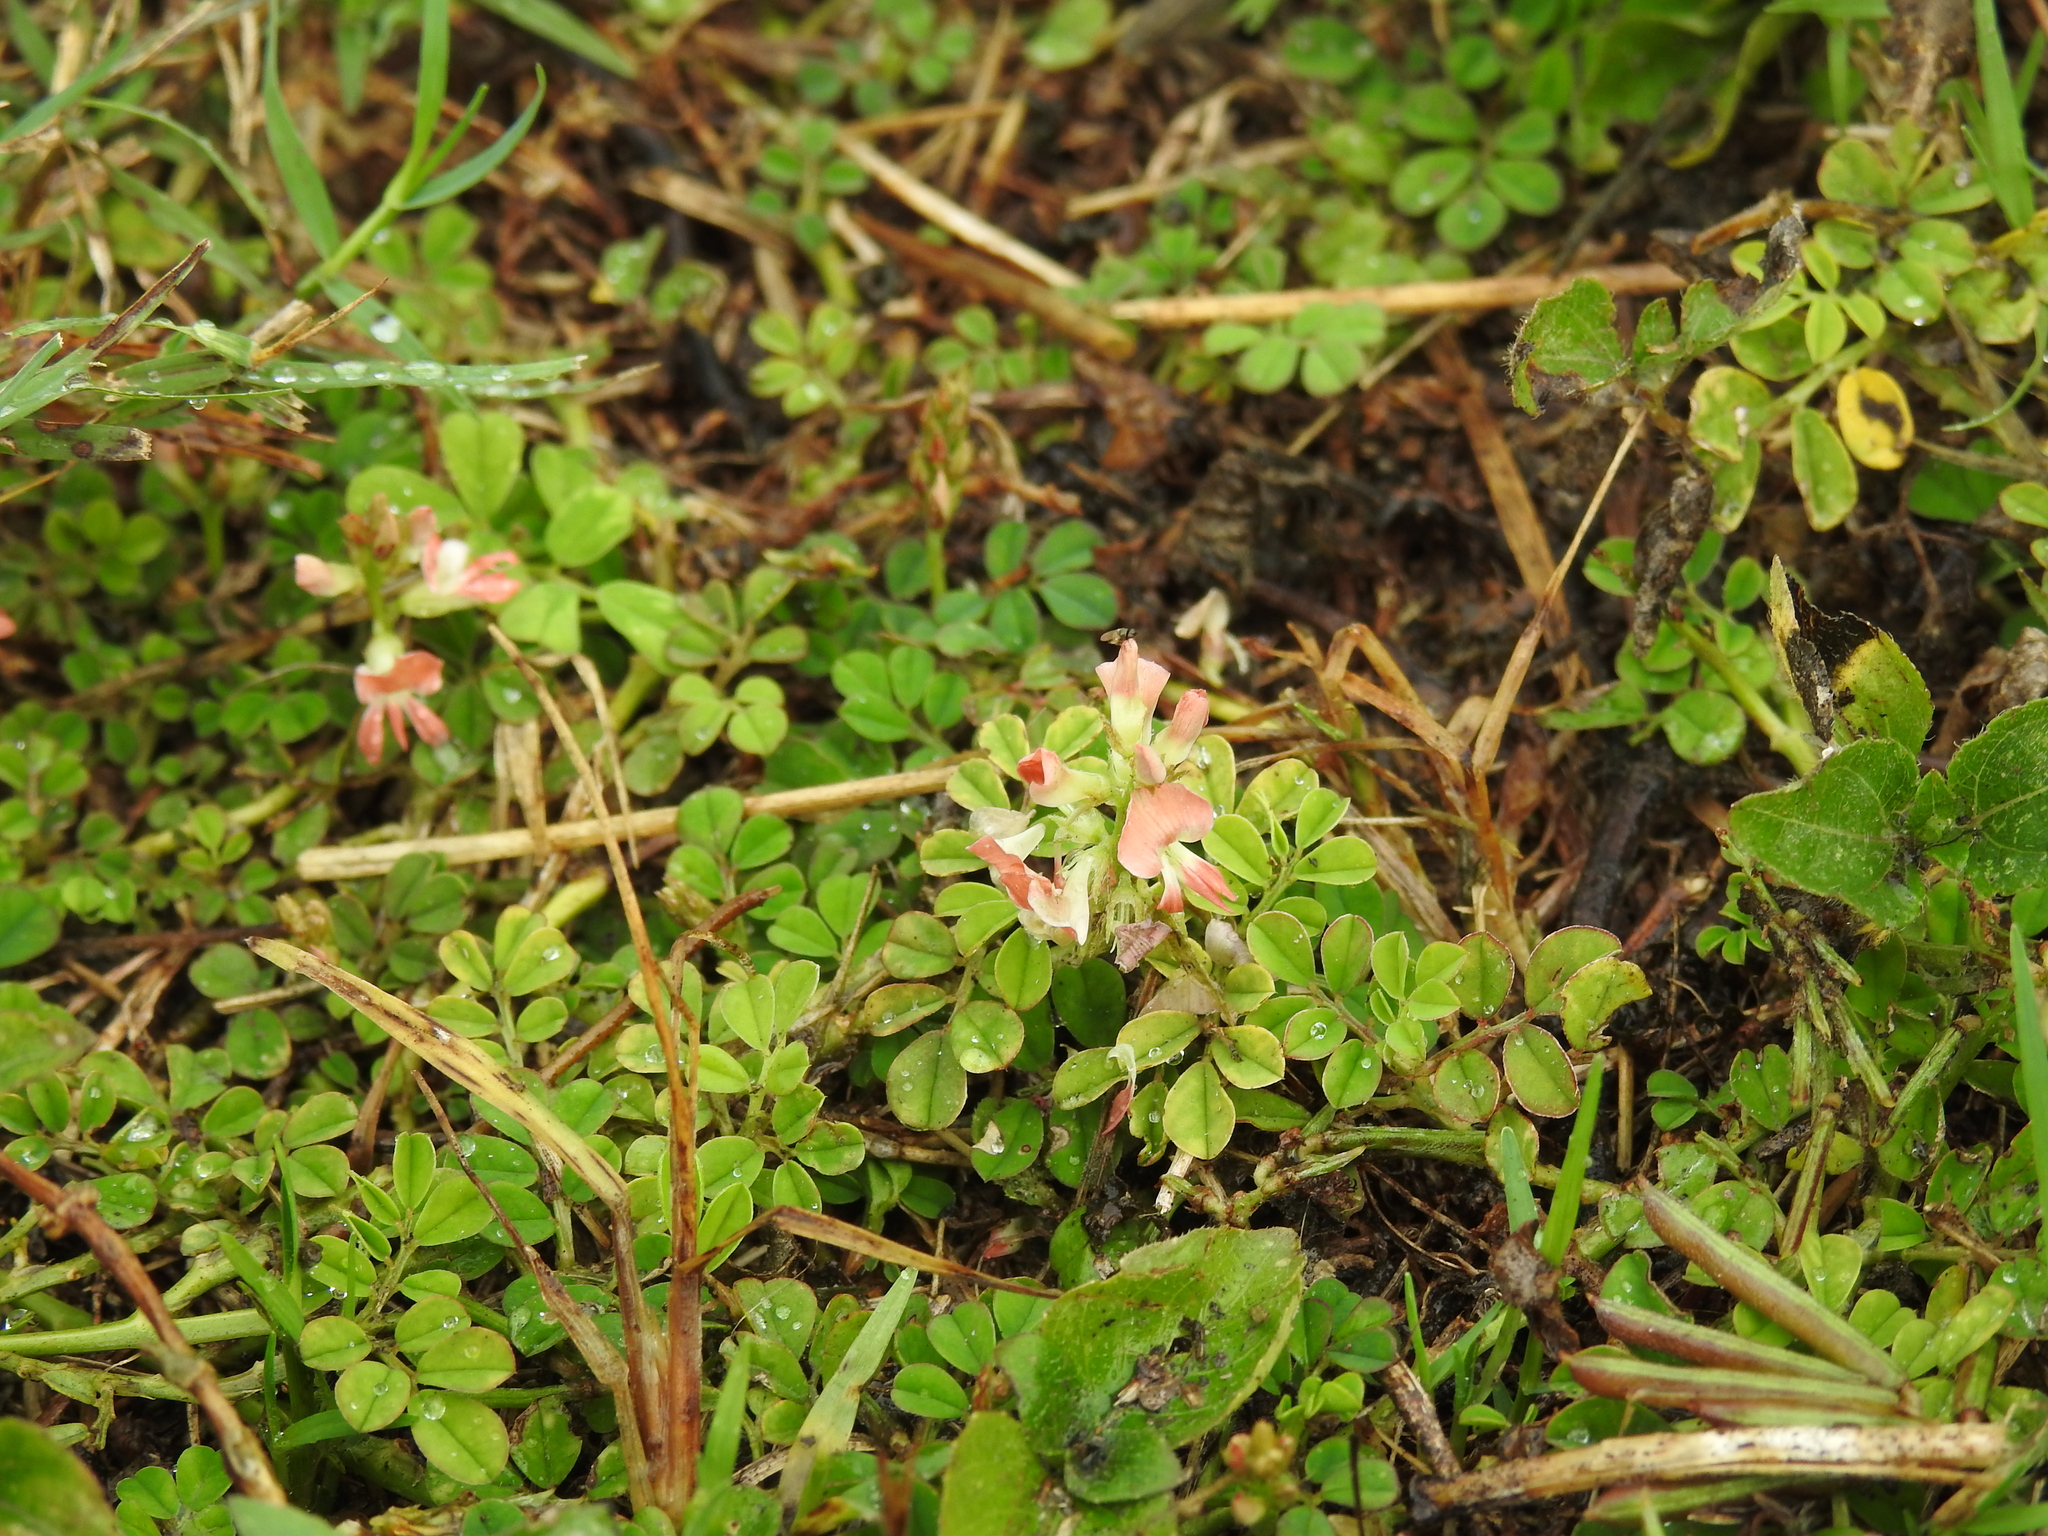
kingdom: Plantae
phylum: Tracheophyta
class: Magnoliopsida
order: Fabales
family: Fabaceae
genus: Indigofera
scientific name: Indigofera spicata
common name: Creeping indigo
